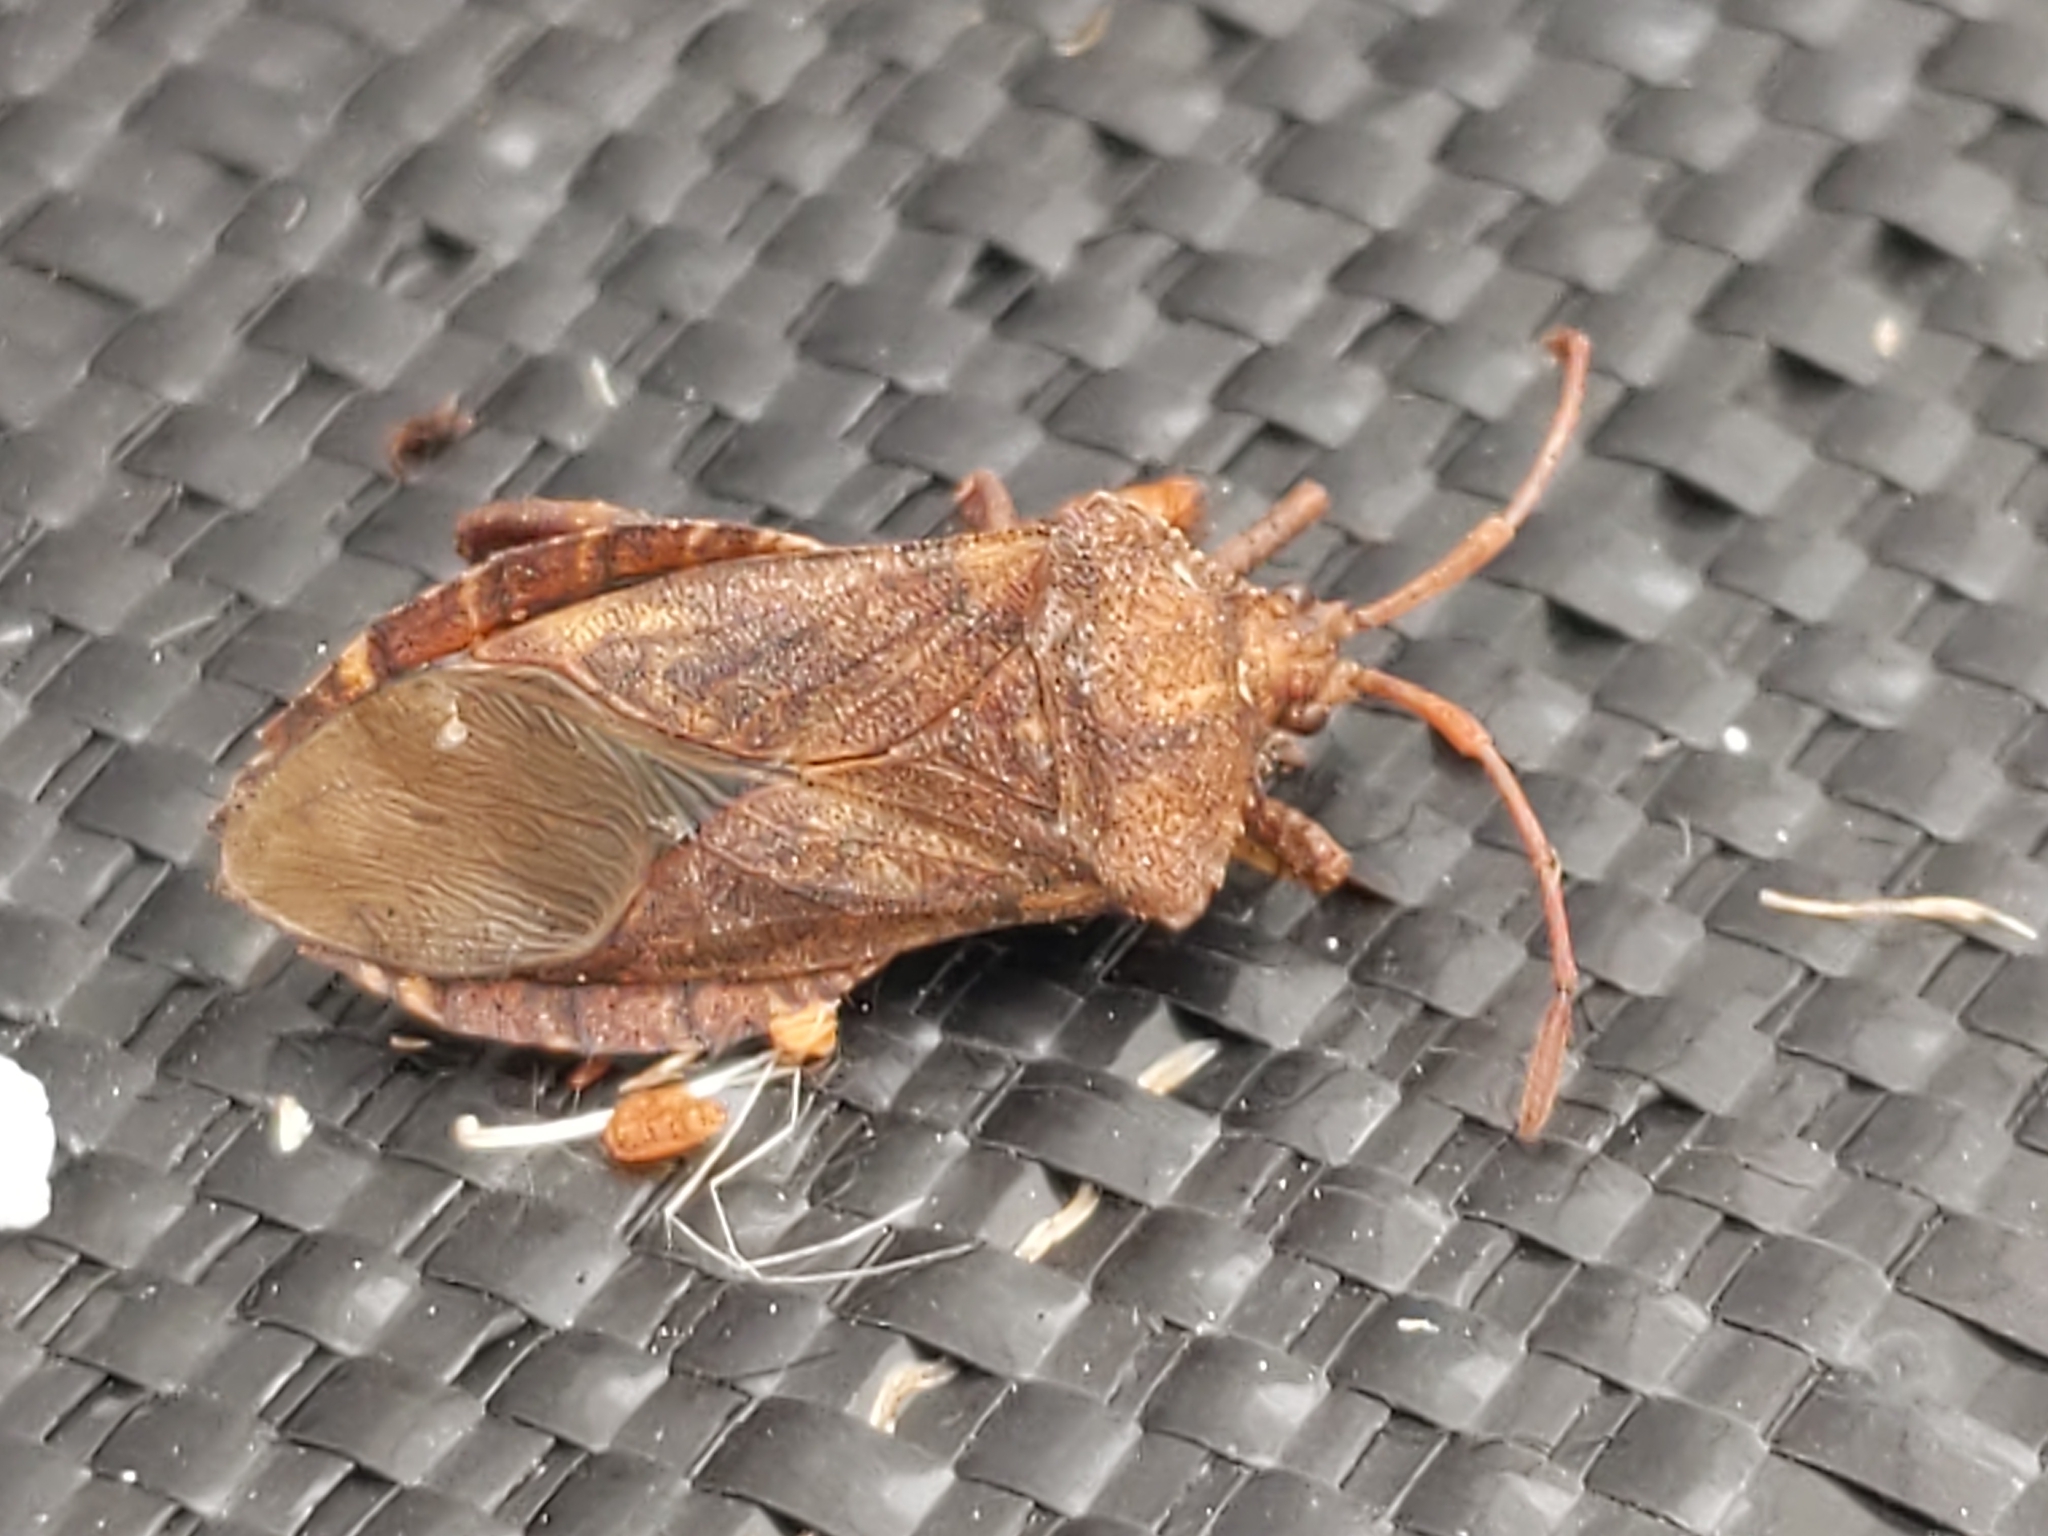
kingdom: Animalia
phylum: Arthropoda
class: Insecta
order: Hemiptera
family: Coreidae
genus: Euthochtha
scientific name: Euthochtha galeator
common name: Helmeted squash bug
